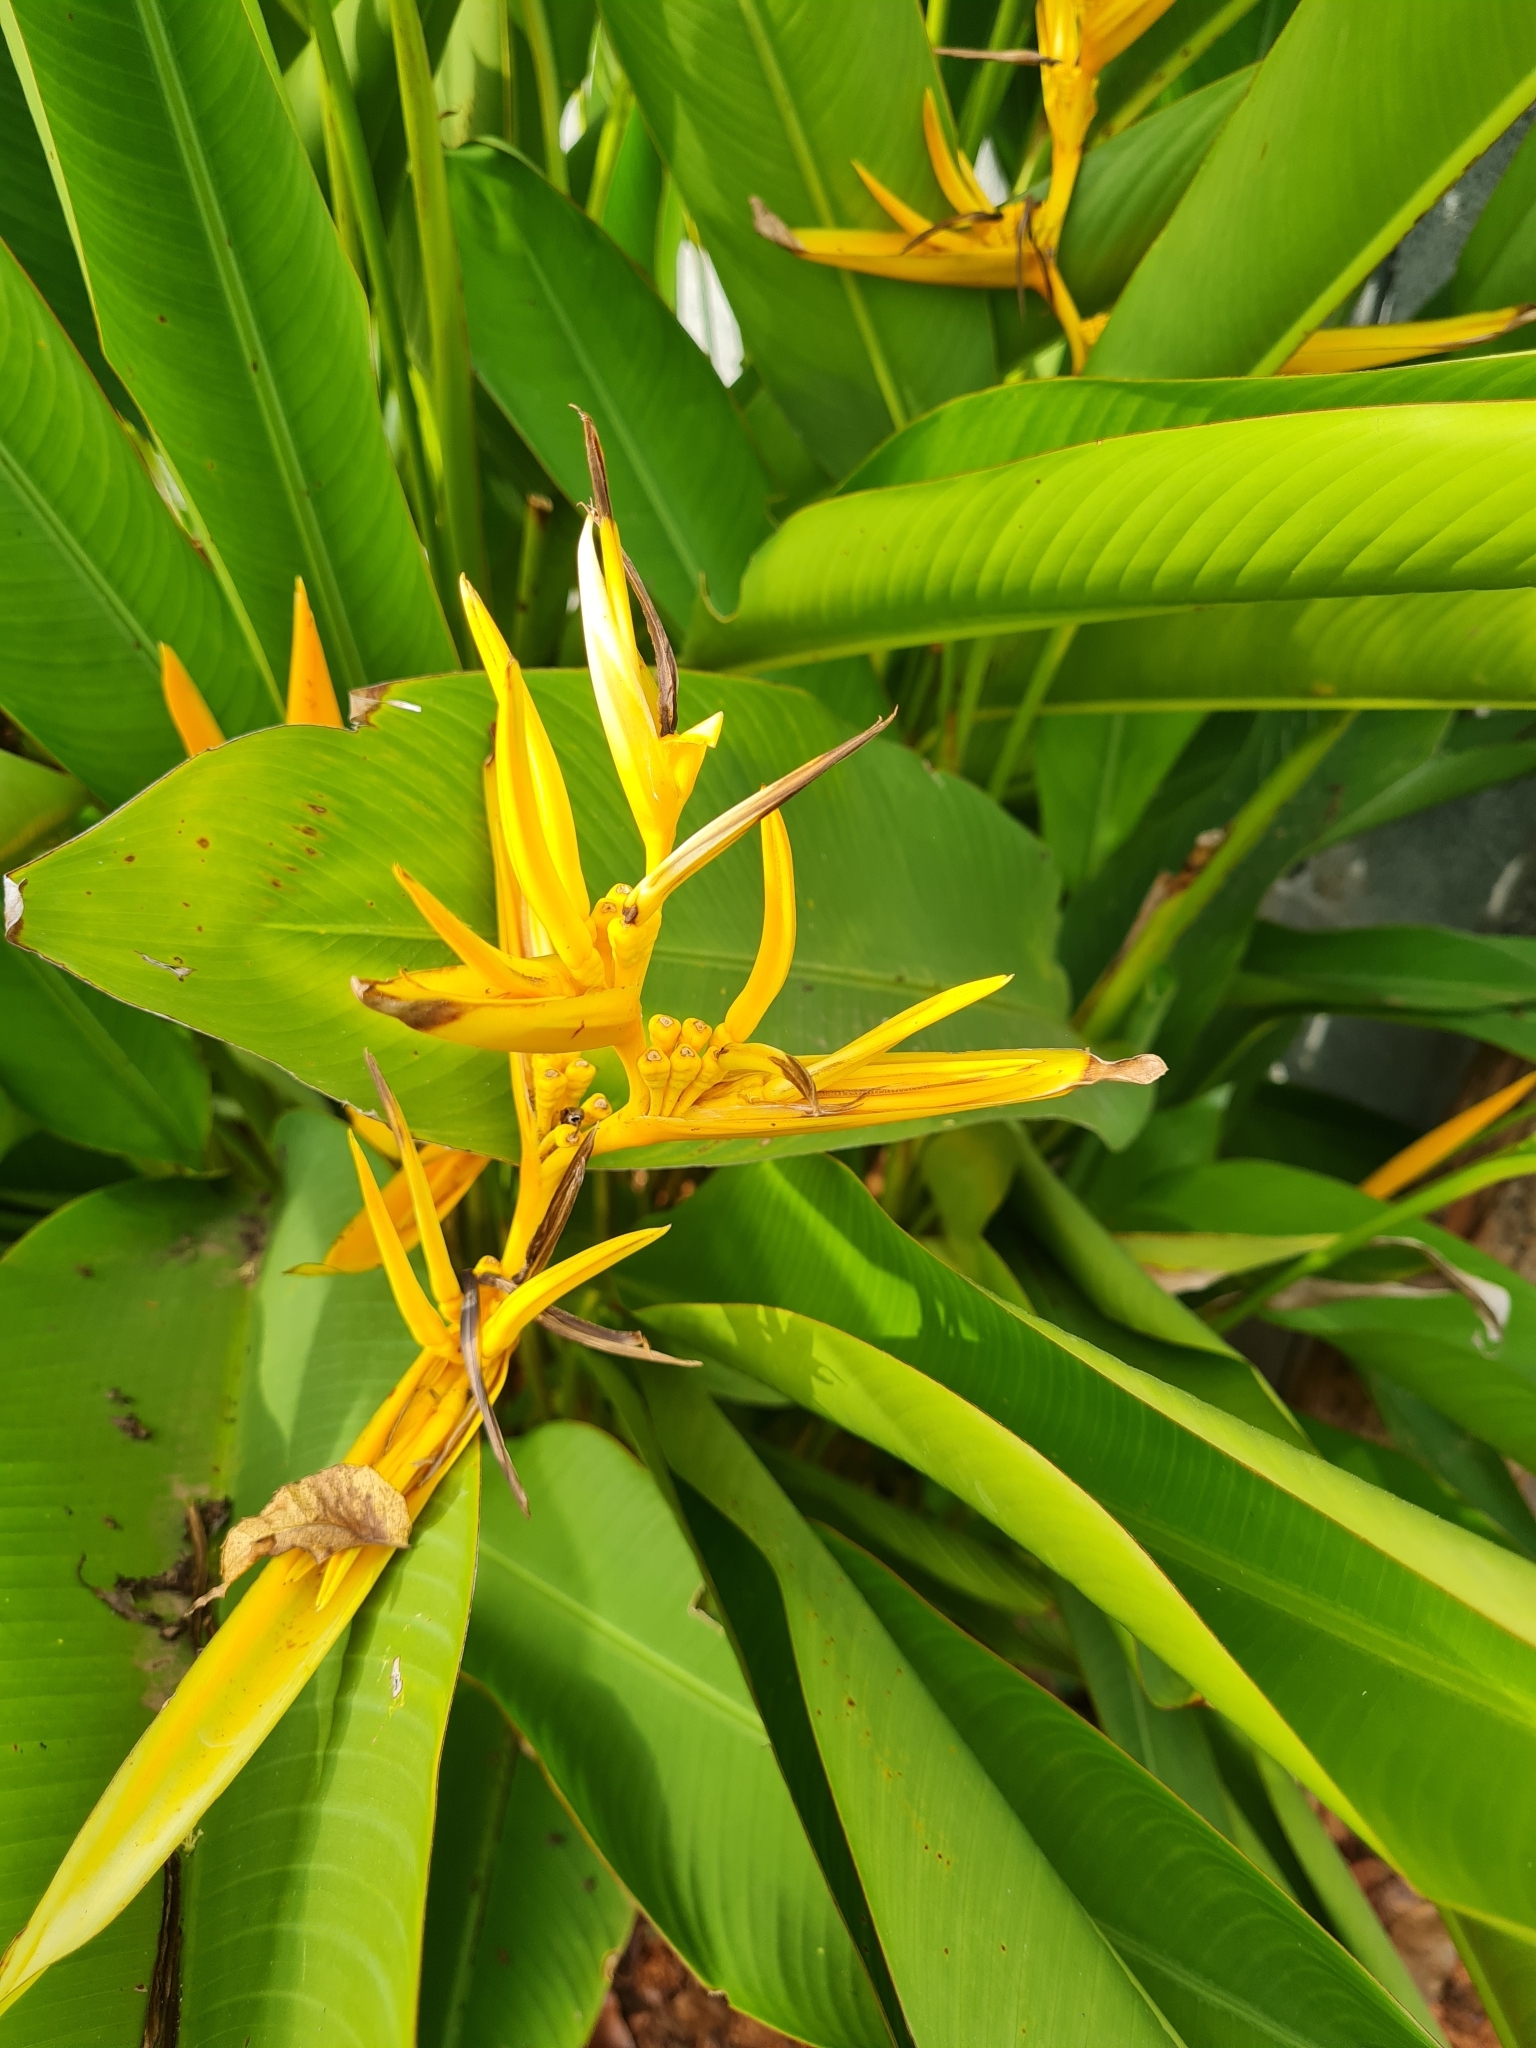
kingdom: Plantae
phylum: Tracheophyta
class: Liliopsida
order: Zingiberales
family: Heliconiaceae
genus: Heliconia
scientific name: Heliconia nickeriensis
